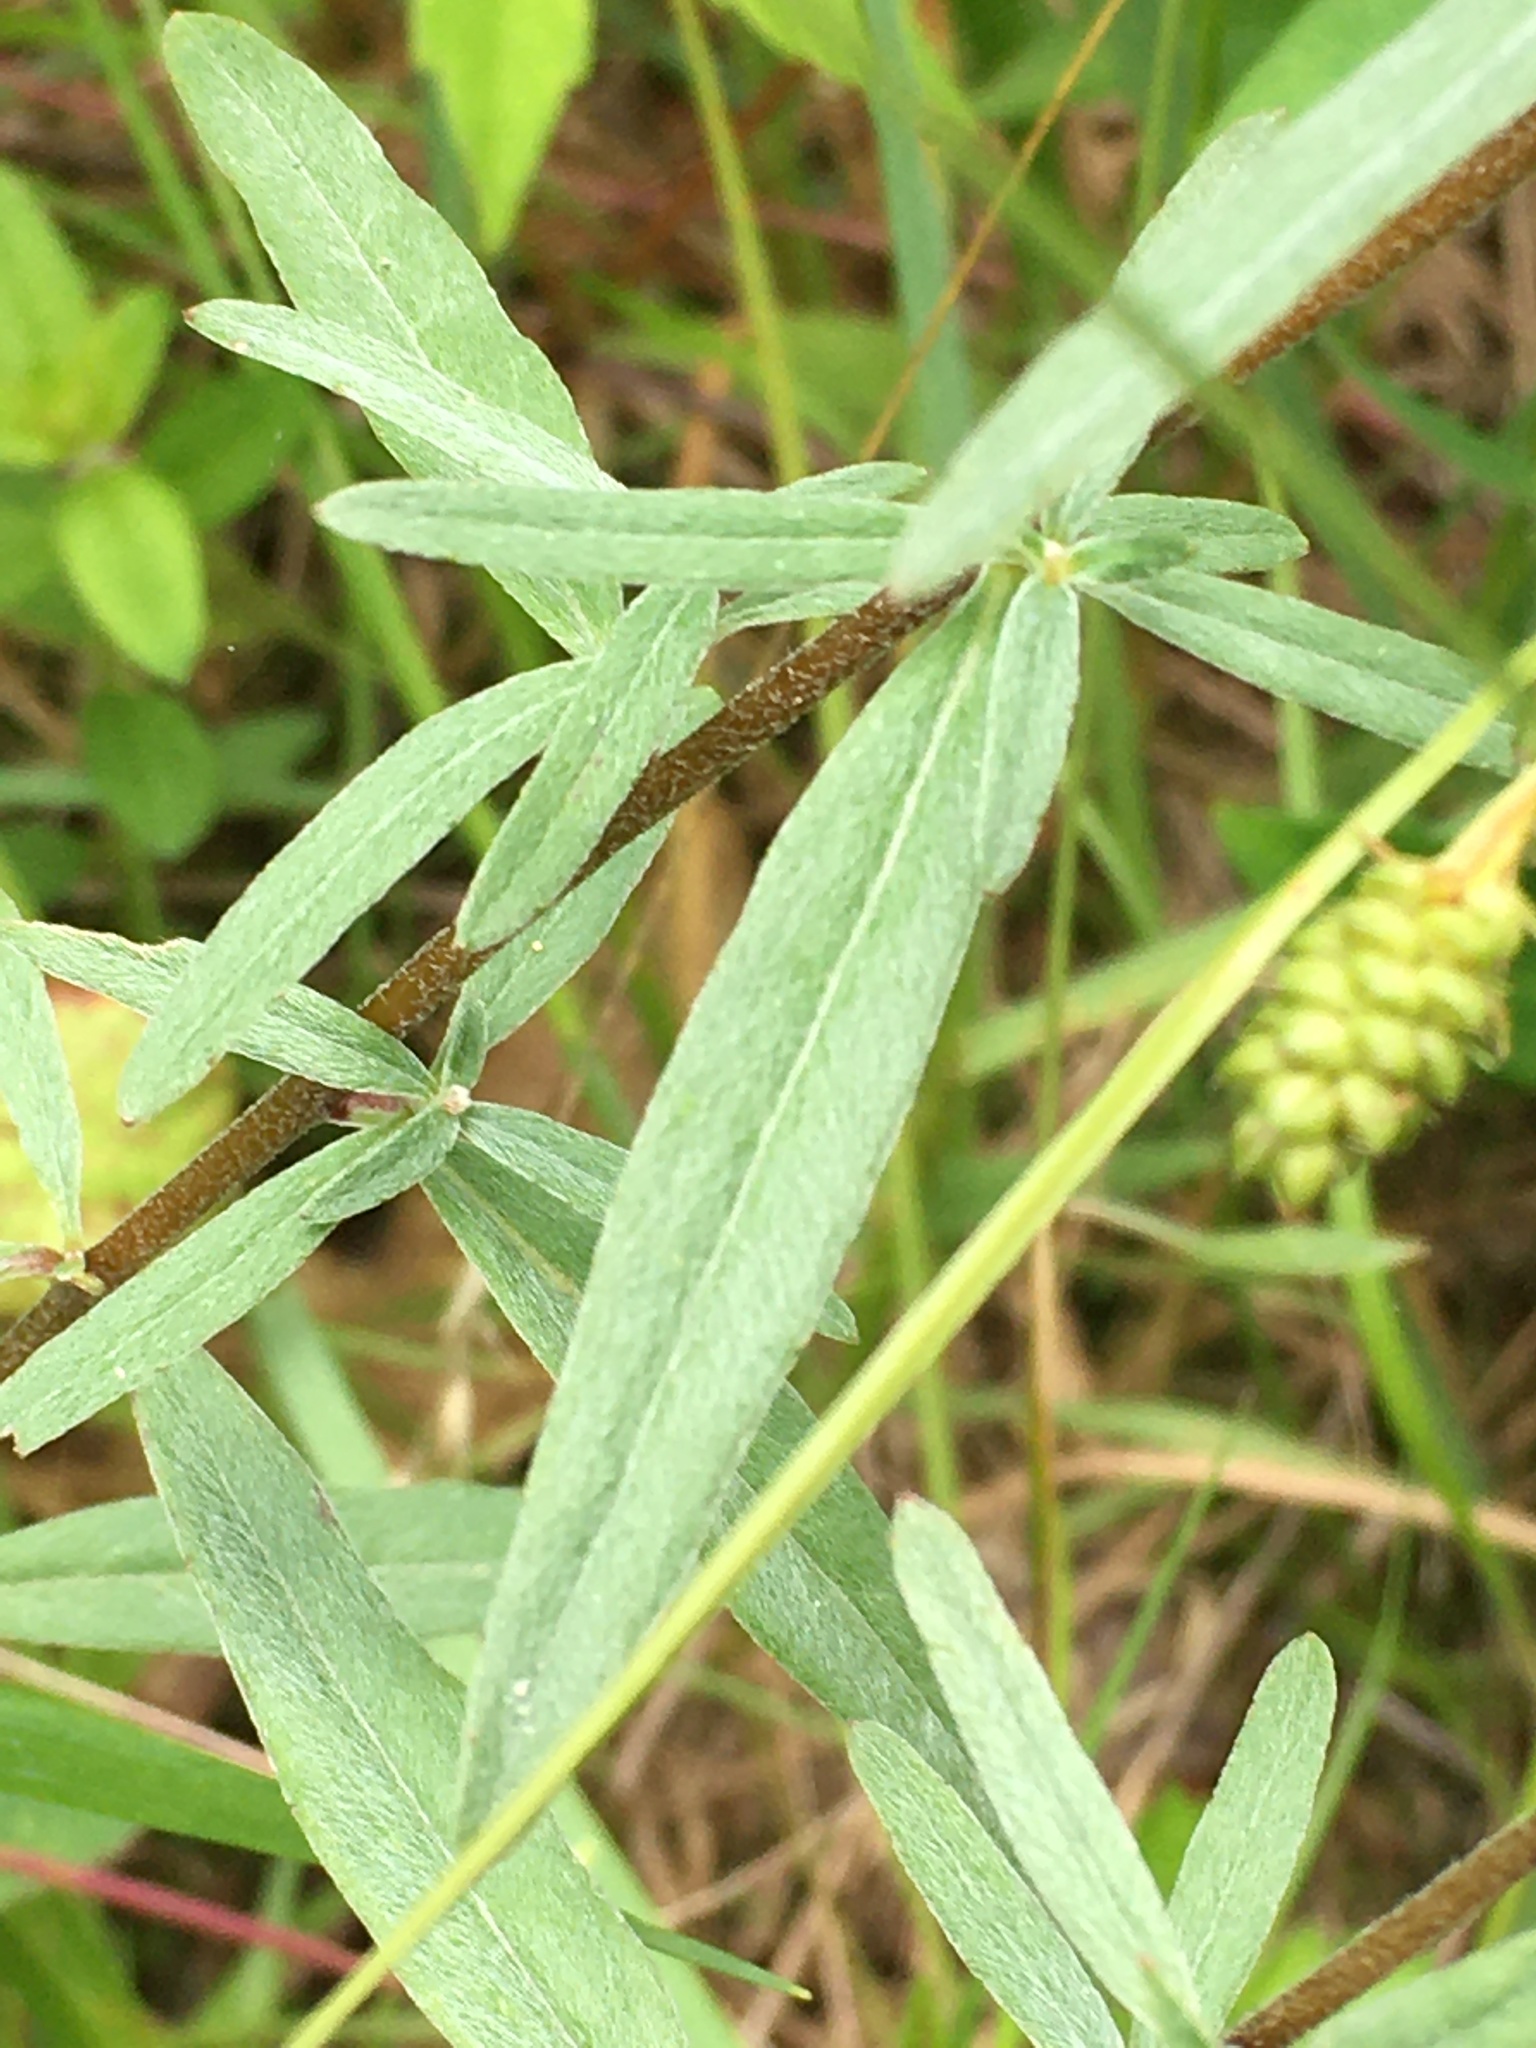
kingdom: Plantae
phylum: Tracheophyta
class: Magnoliopsida
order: Myrtales
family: Onagraceae
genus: Oenothera
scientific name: Oenothera fruticosa
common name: Southern sundrops
